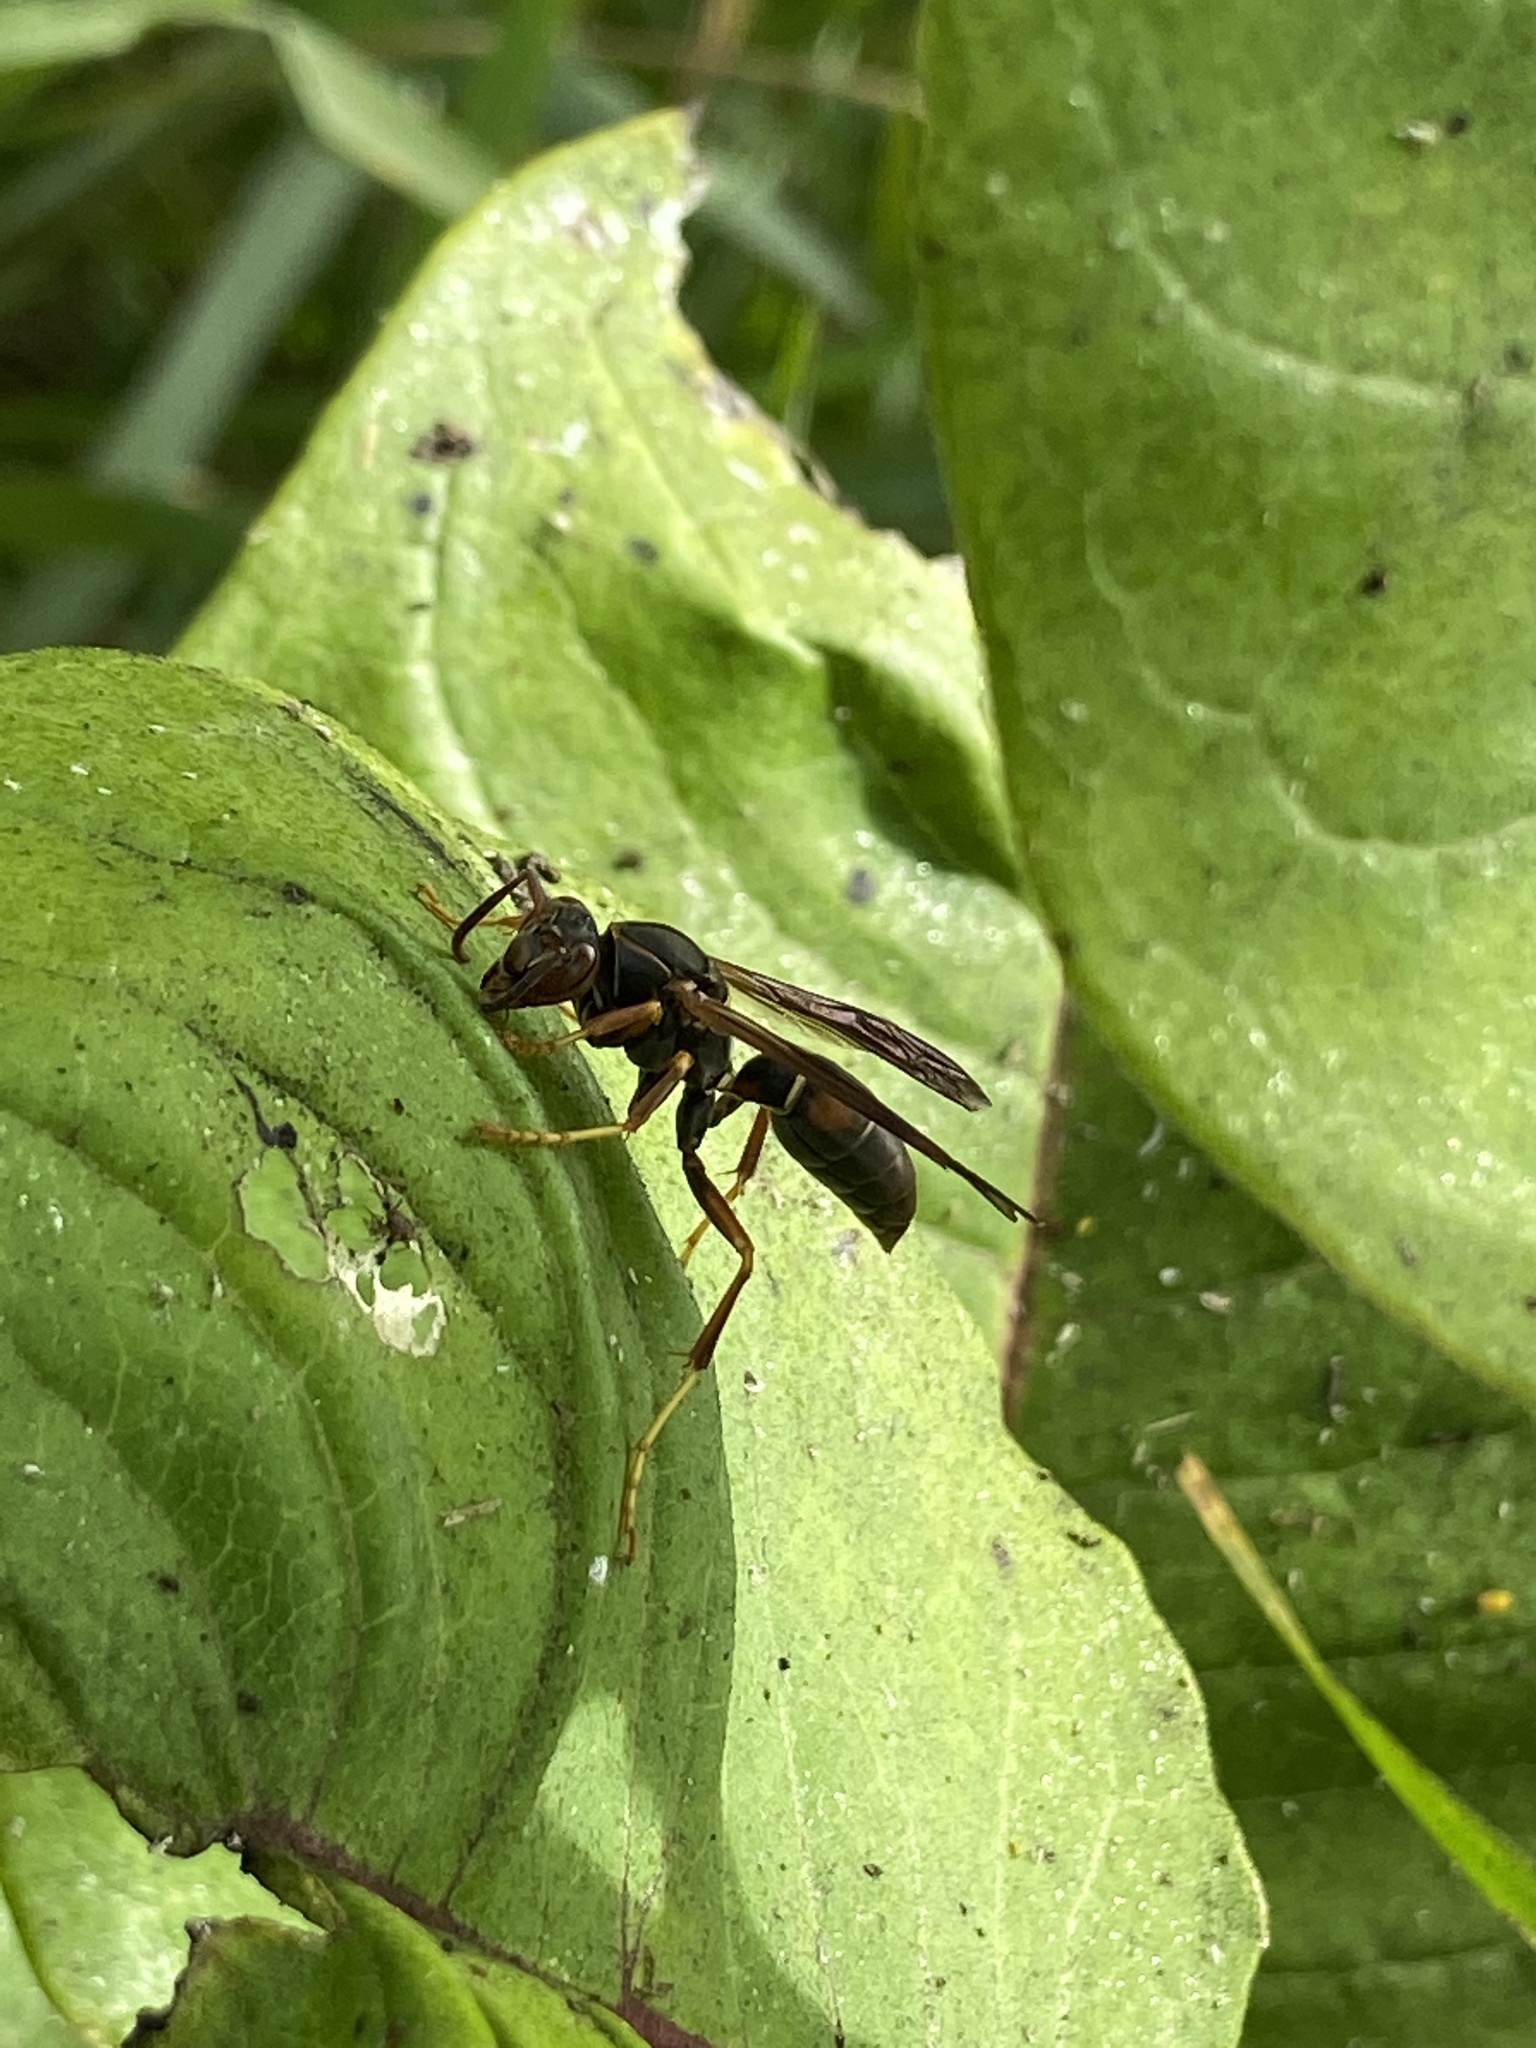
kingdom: Animalia
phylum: Arthropoda
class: Insecta
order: Hymenoptera
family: Eumenidae
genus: Polistes
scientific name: Polistes fuscatus
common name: Dark paper wasp
